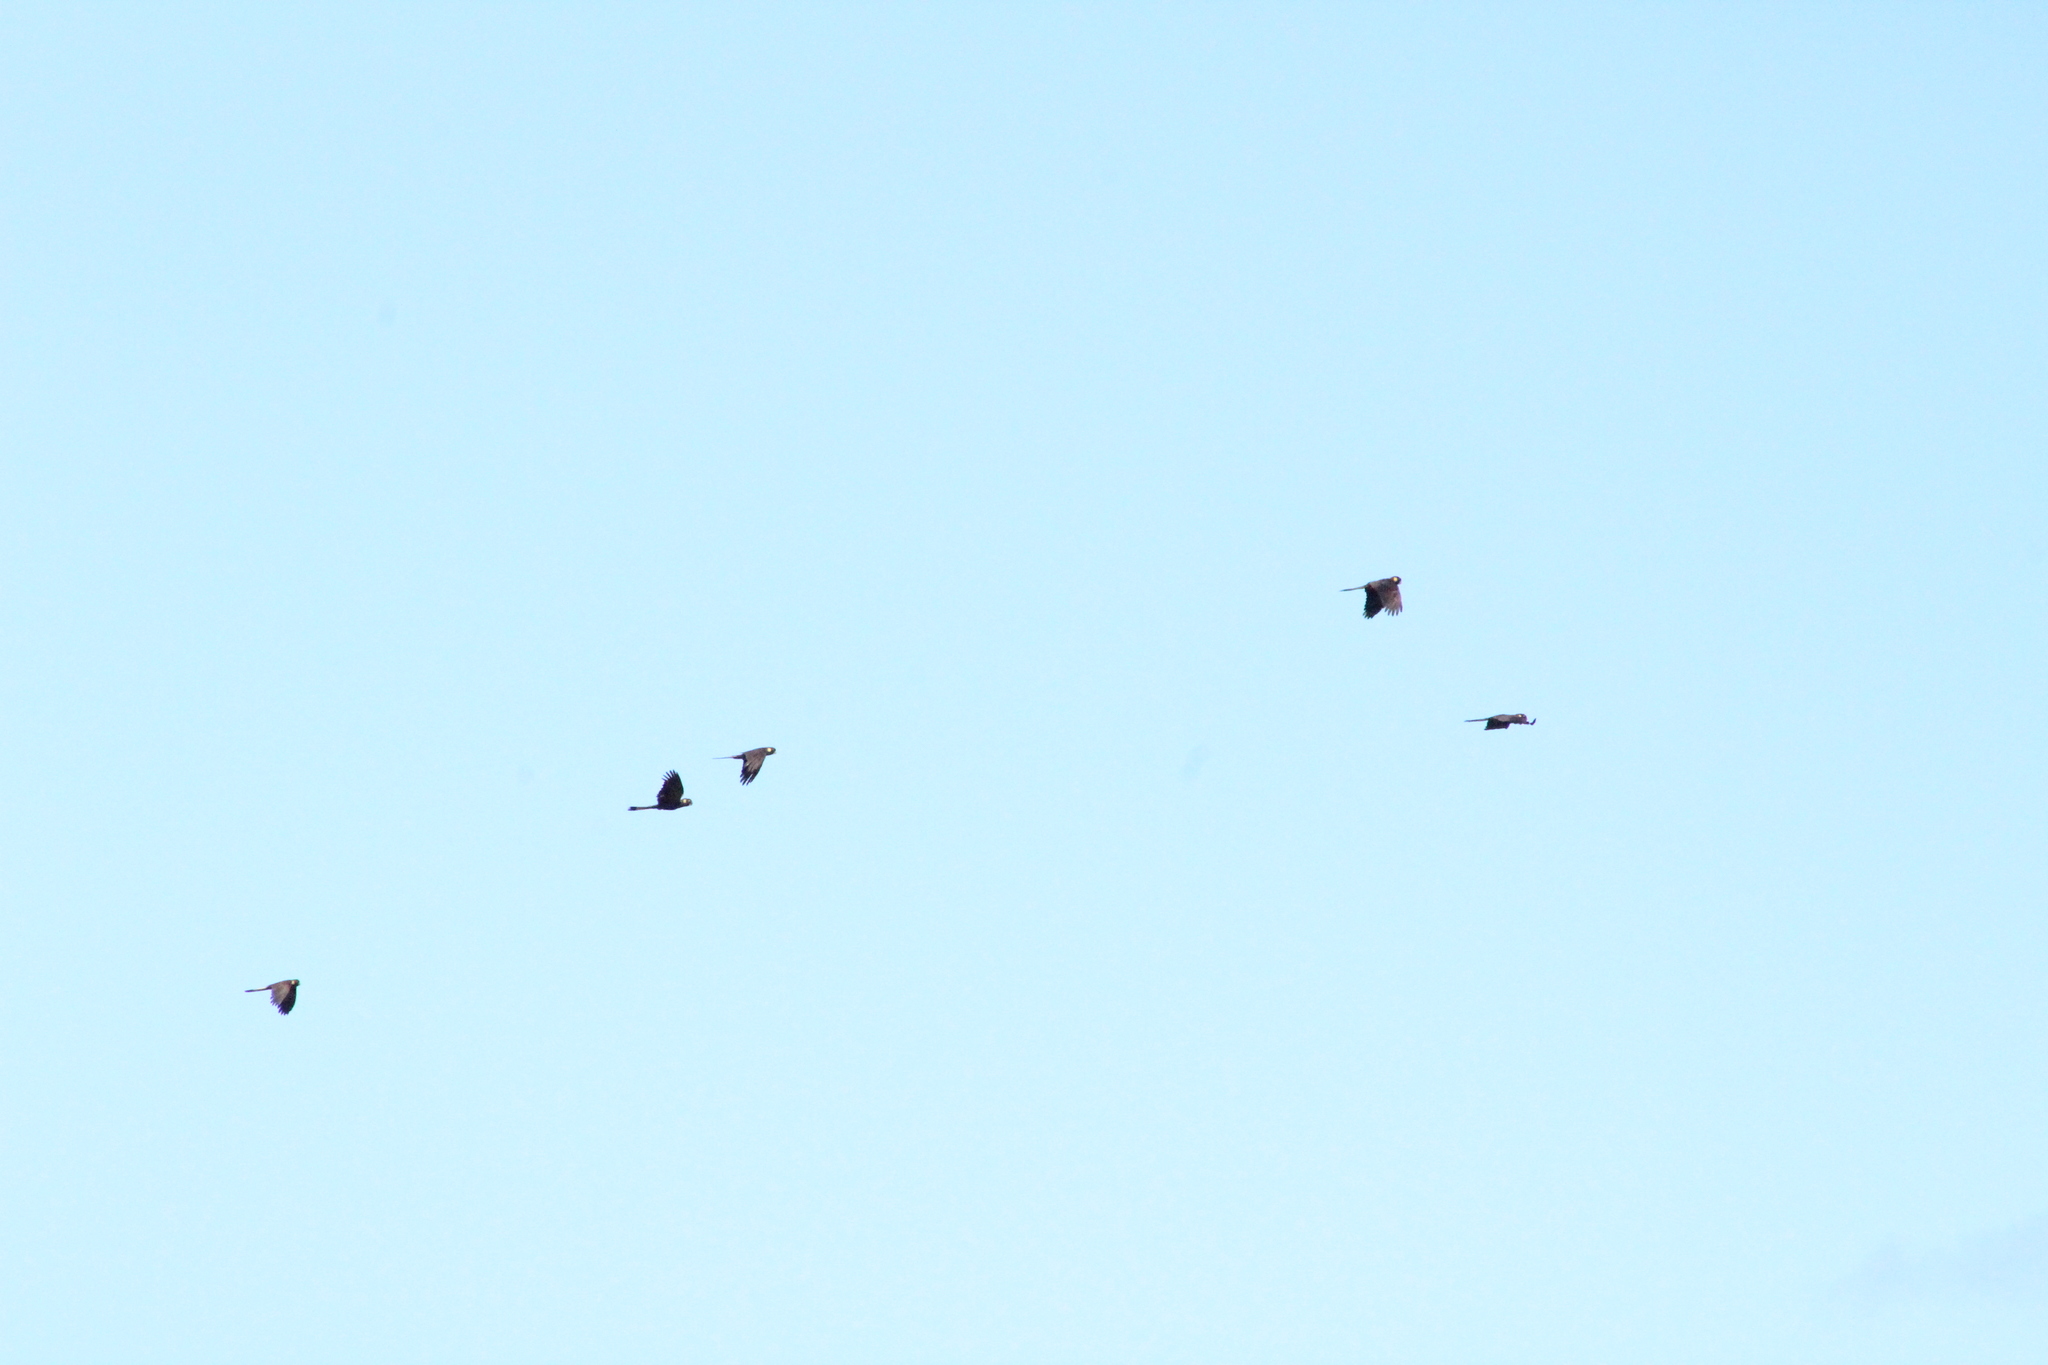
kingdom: Animalia
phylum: Chordata
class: Aves
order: Psittaciformes
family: Cacatuidae
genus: Zanda
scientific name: Zanda funerea
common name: Yellow-tailed black-cockatoo
